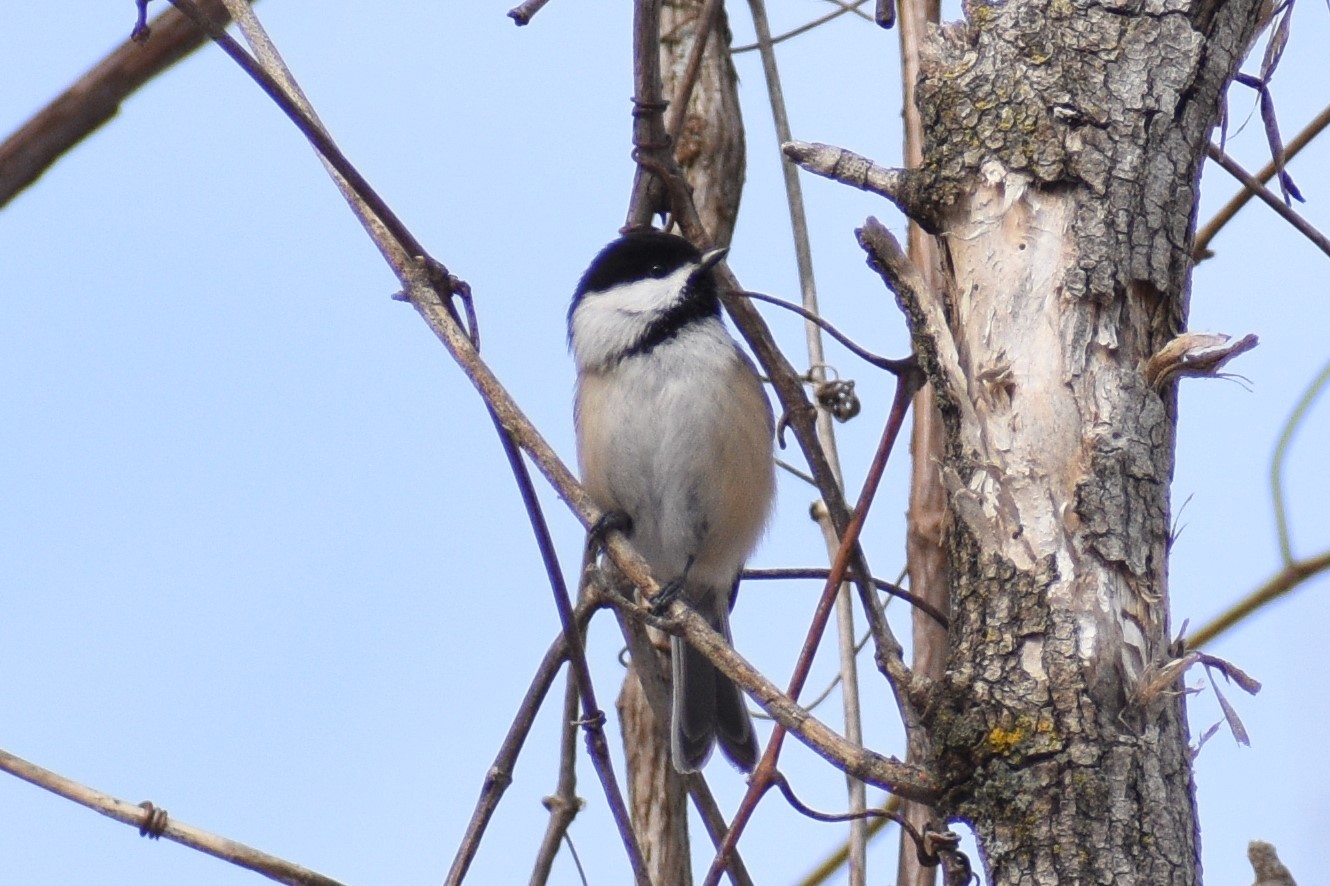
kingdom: Animalia
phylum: Chordata
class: Aves
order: Passeriformes
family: Paridae
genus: Poecile
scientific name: Poecile atricapillus
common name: Black-capped chickadee
